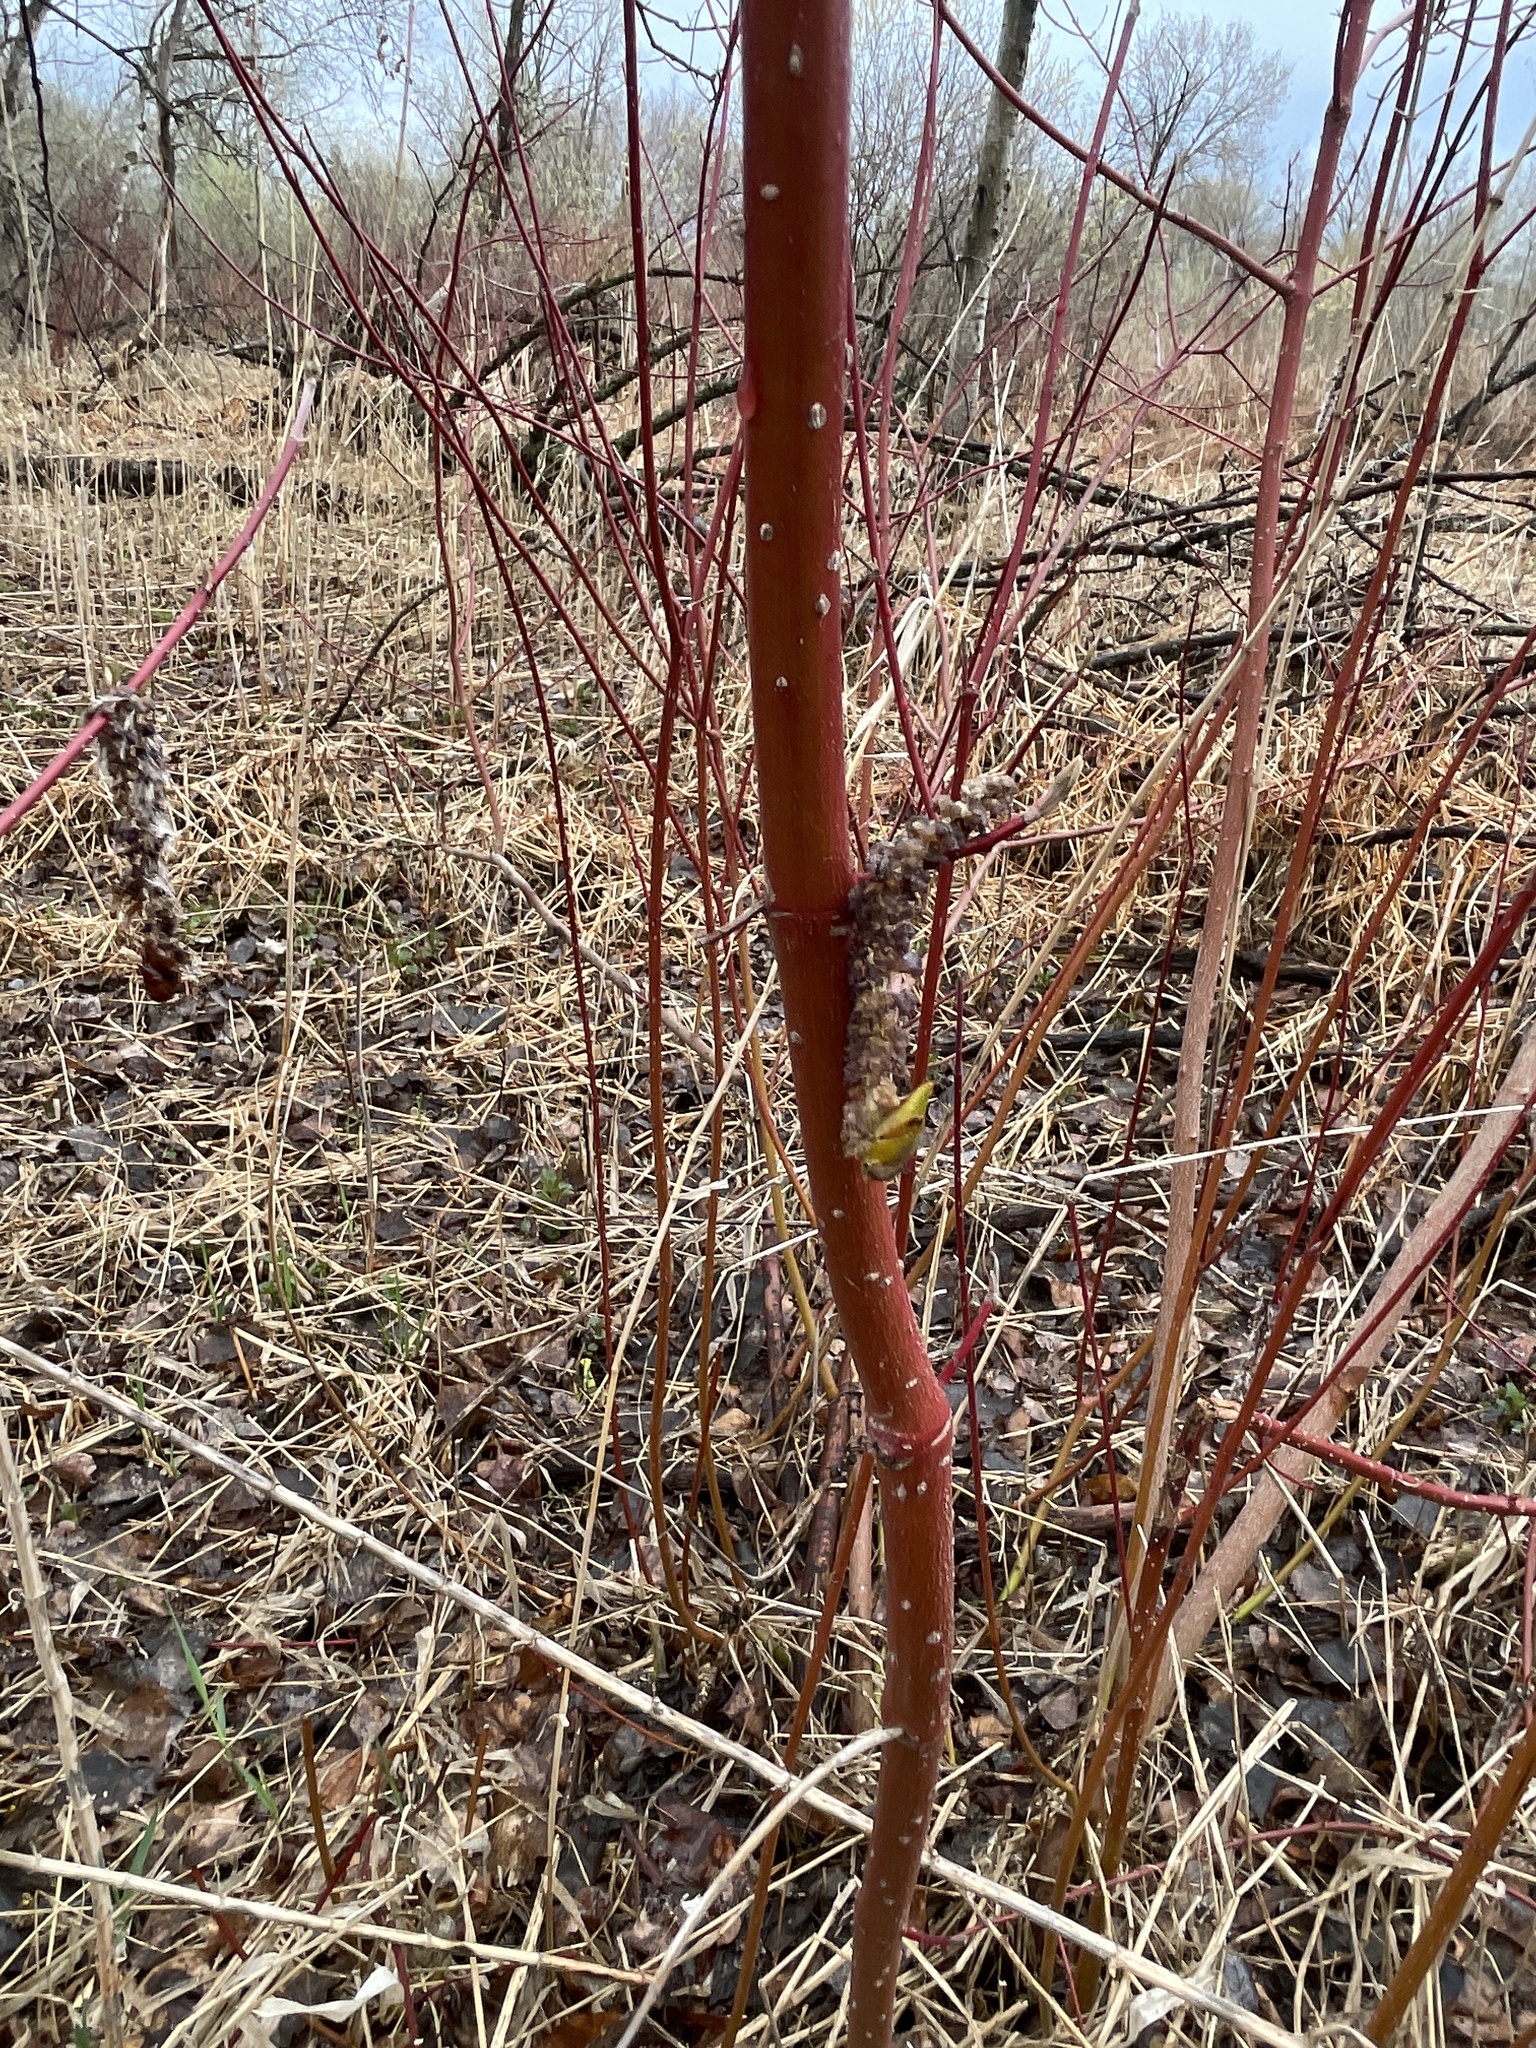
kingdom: Plantae
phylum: Tracheophyta
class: Magnoliopsida
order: Cornales
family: Cornaceae
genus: Cornus
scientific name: Cornus sericea
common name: Red-osier dogwood
